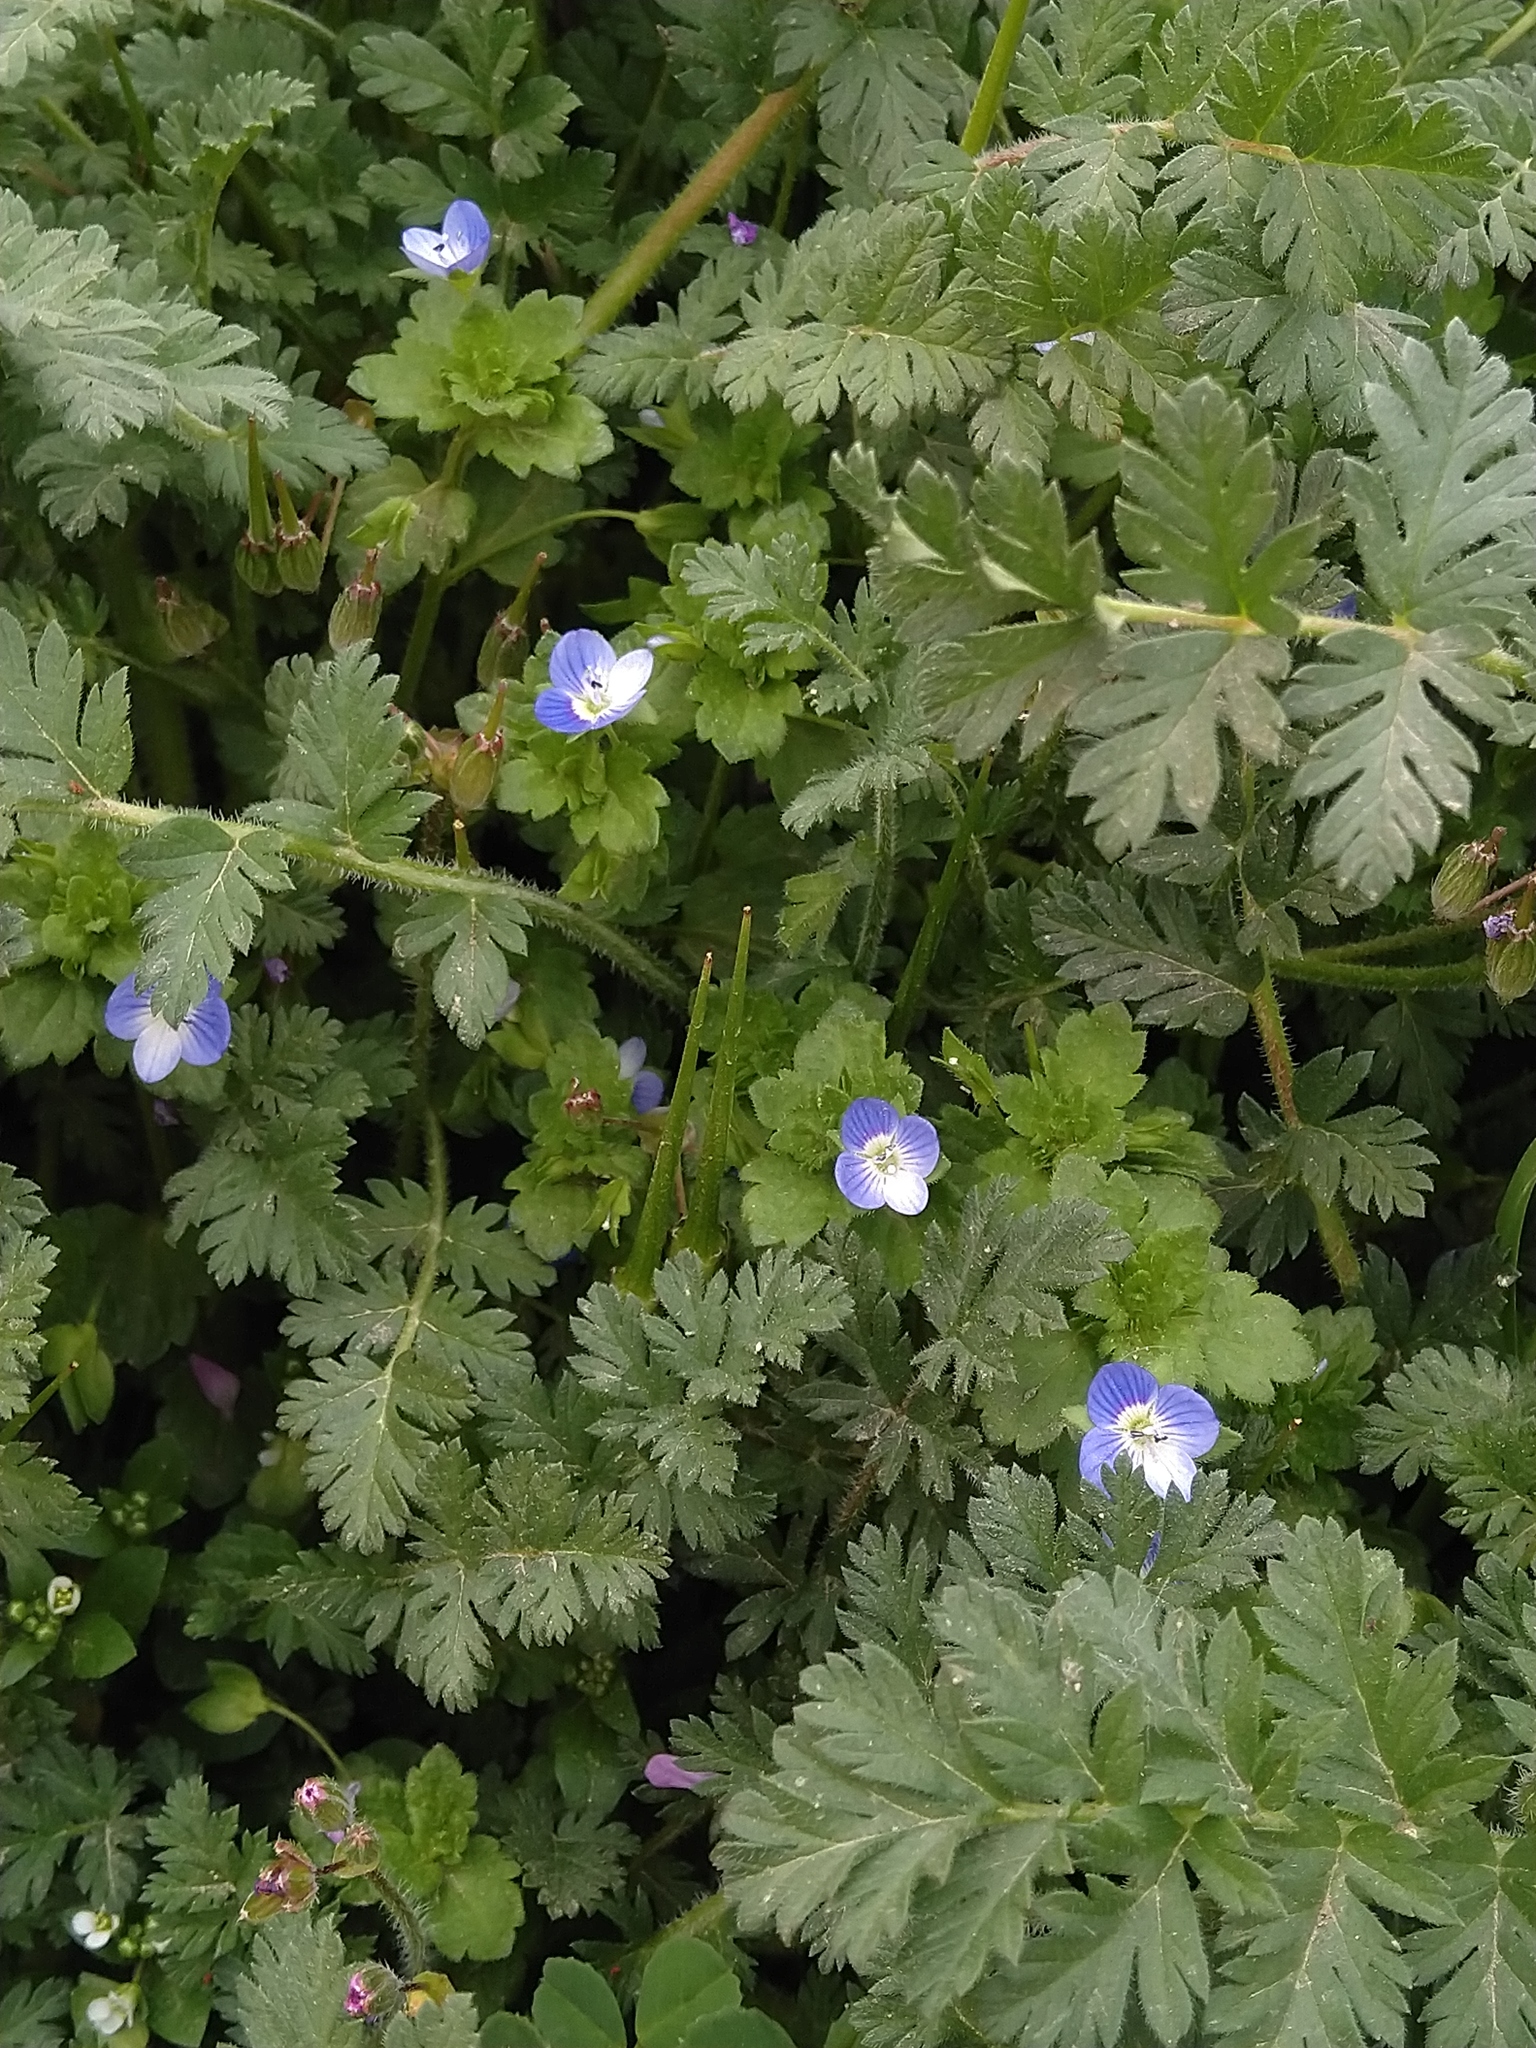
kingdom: Plantae
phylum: Tracheophyta
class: Magnoliopsida
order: Lamiales
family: Plantaginaceae
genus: Veronica
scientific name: Veronica persica
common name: Common field-speedwell
